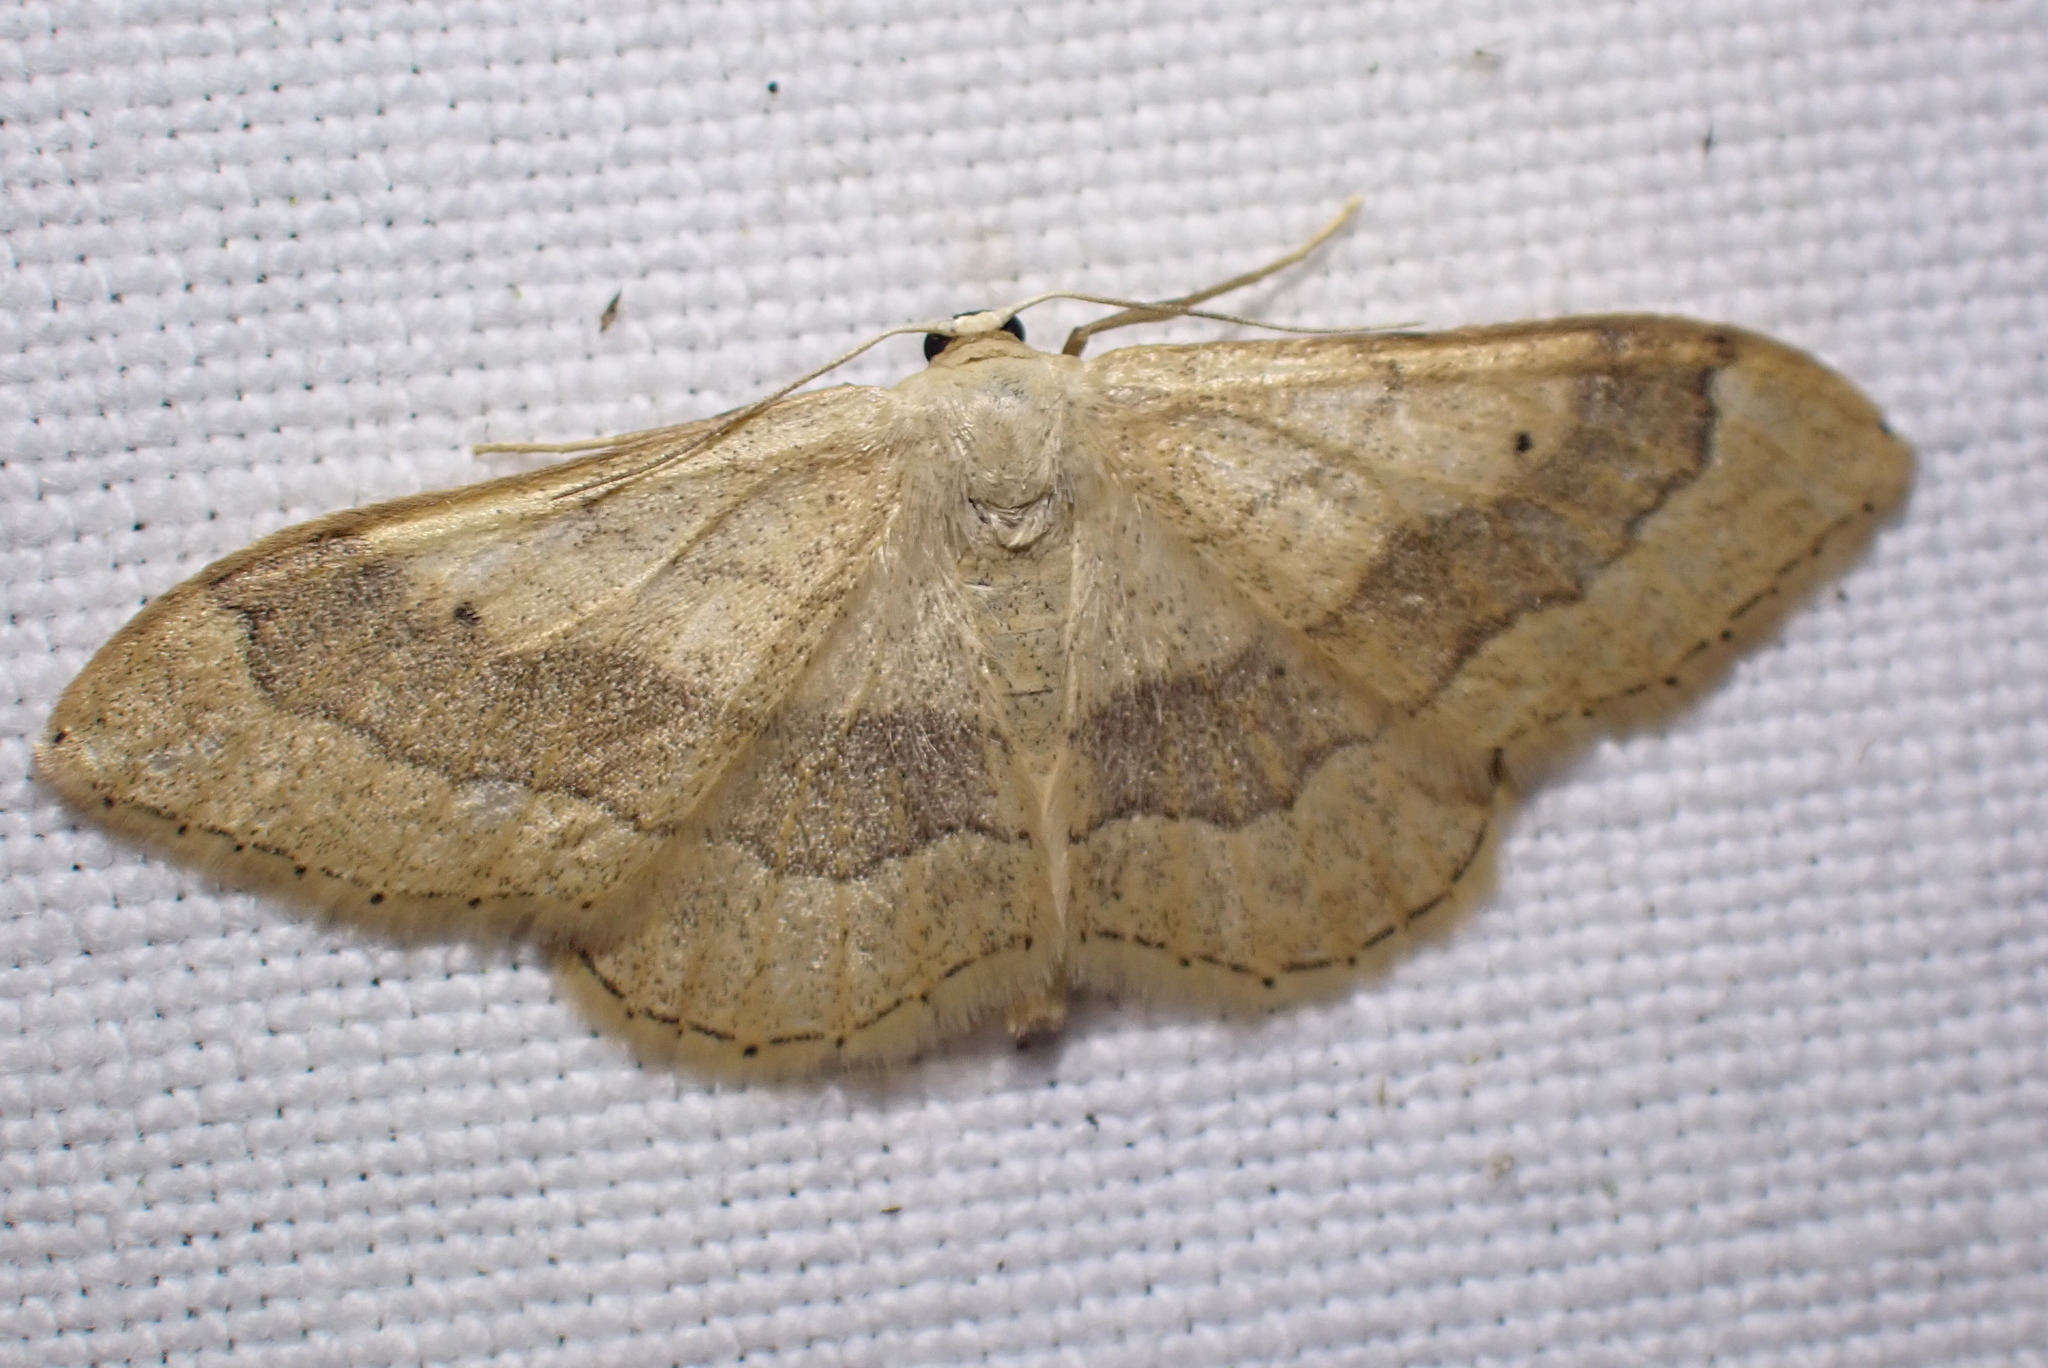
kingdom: Animalia
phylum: Arthropoda
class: Insecta
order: Lepidoptera
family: Geometridae
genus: Idaea
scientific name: Idaea aversata
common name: Riband wave
